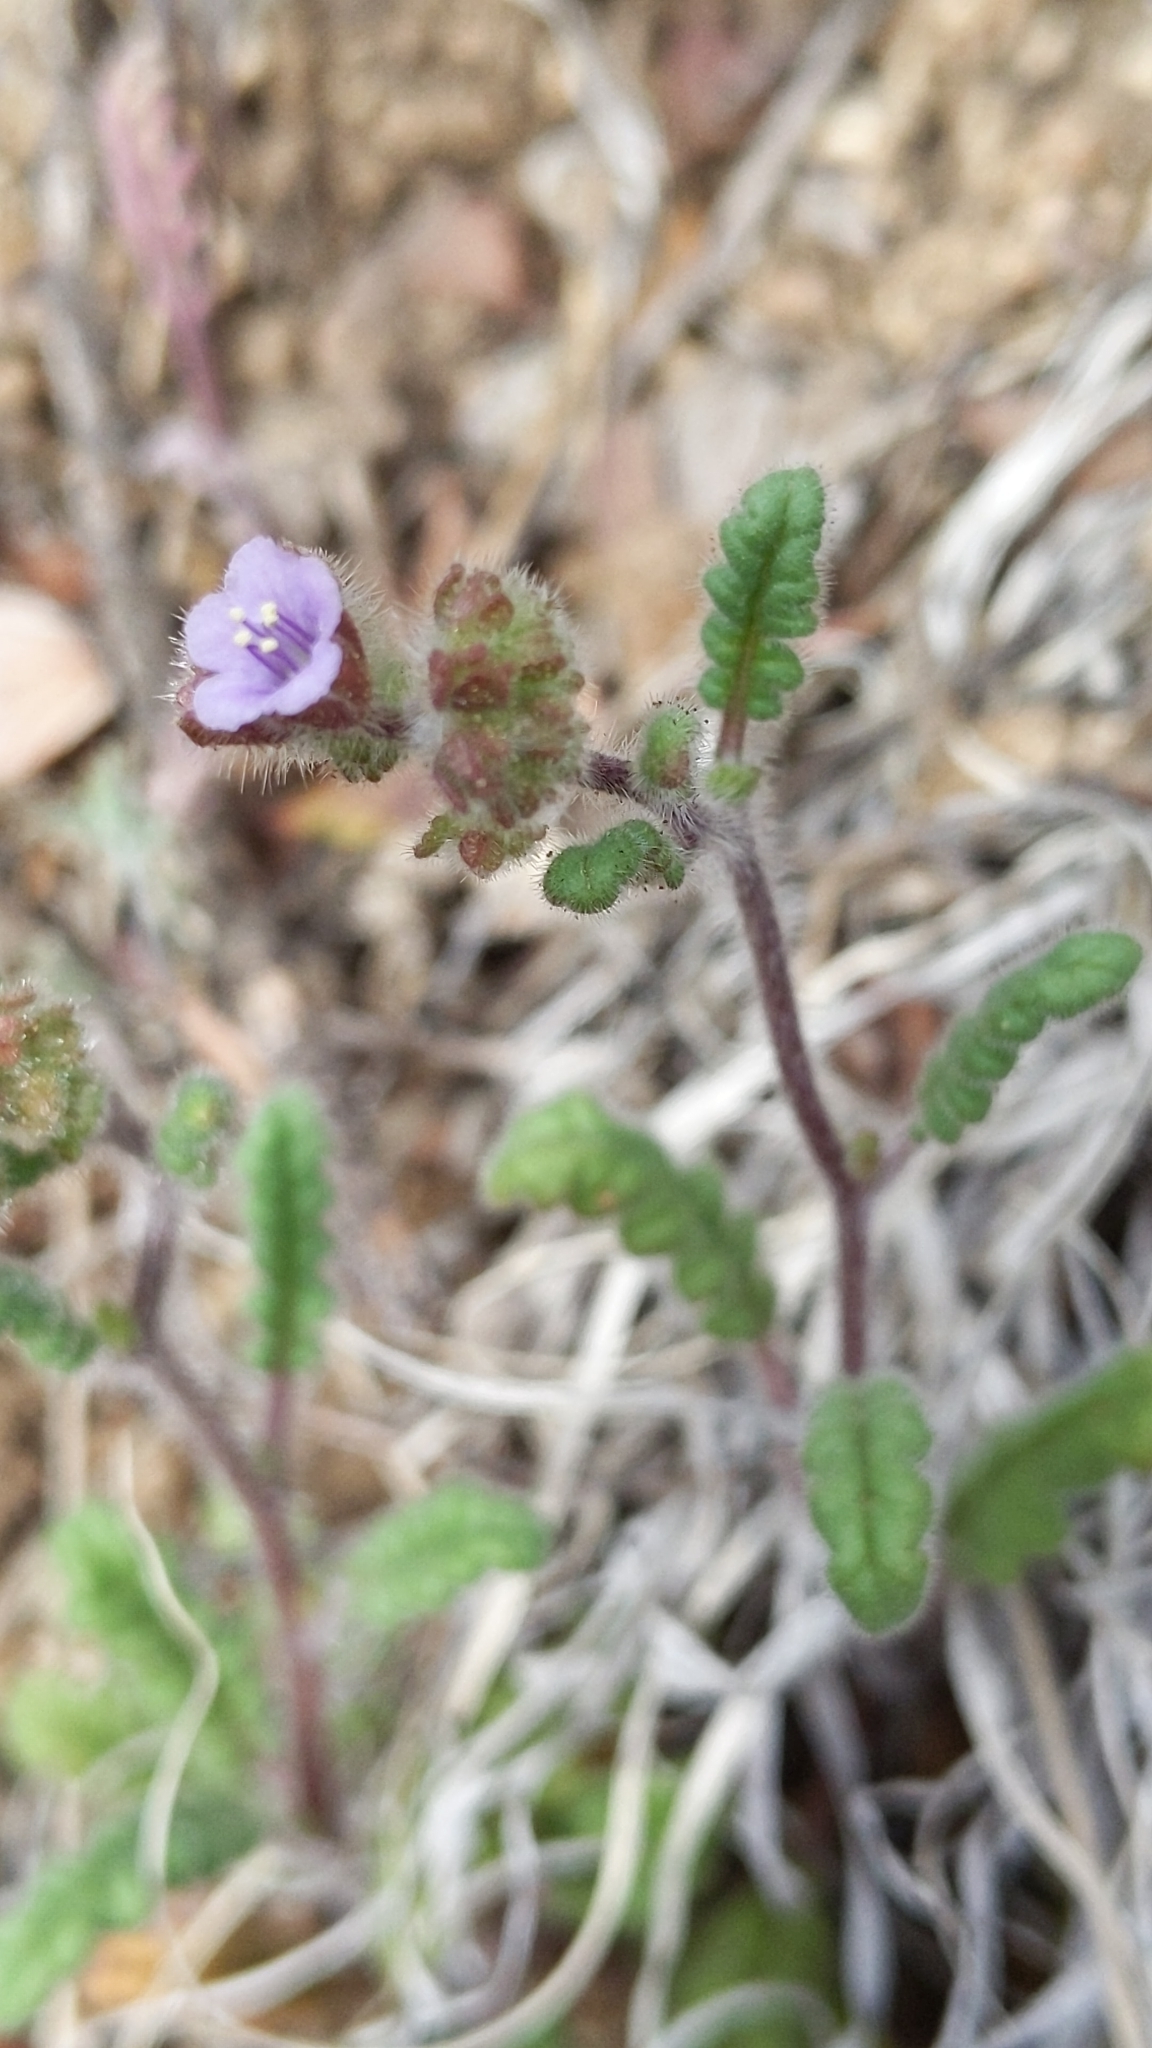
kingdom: Plantae
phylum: Tracheophyta
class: Magnoliopsida
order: Boraginales
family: Hydrophyllaceae
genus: Phacelia
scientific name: Phacelia coerulea
